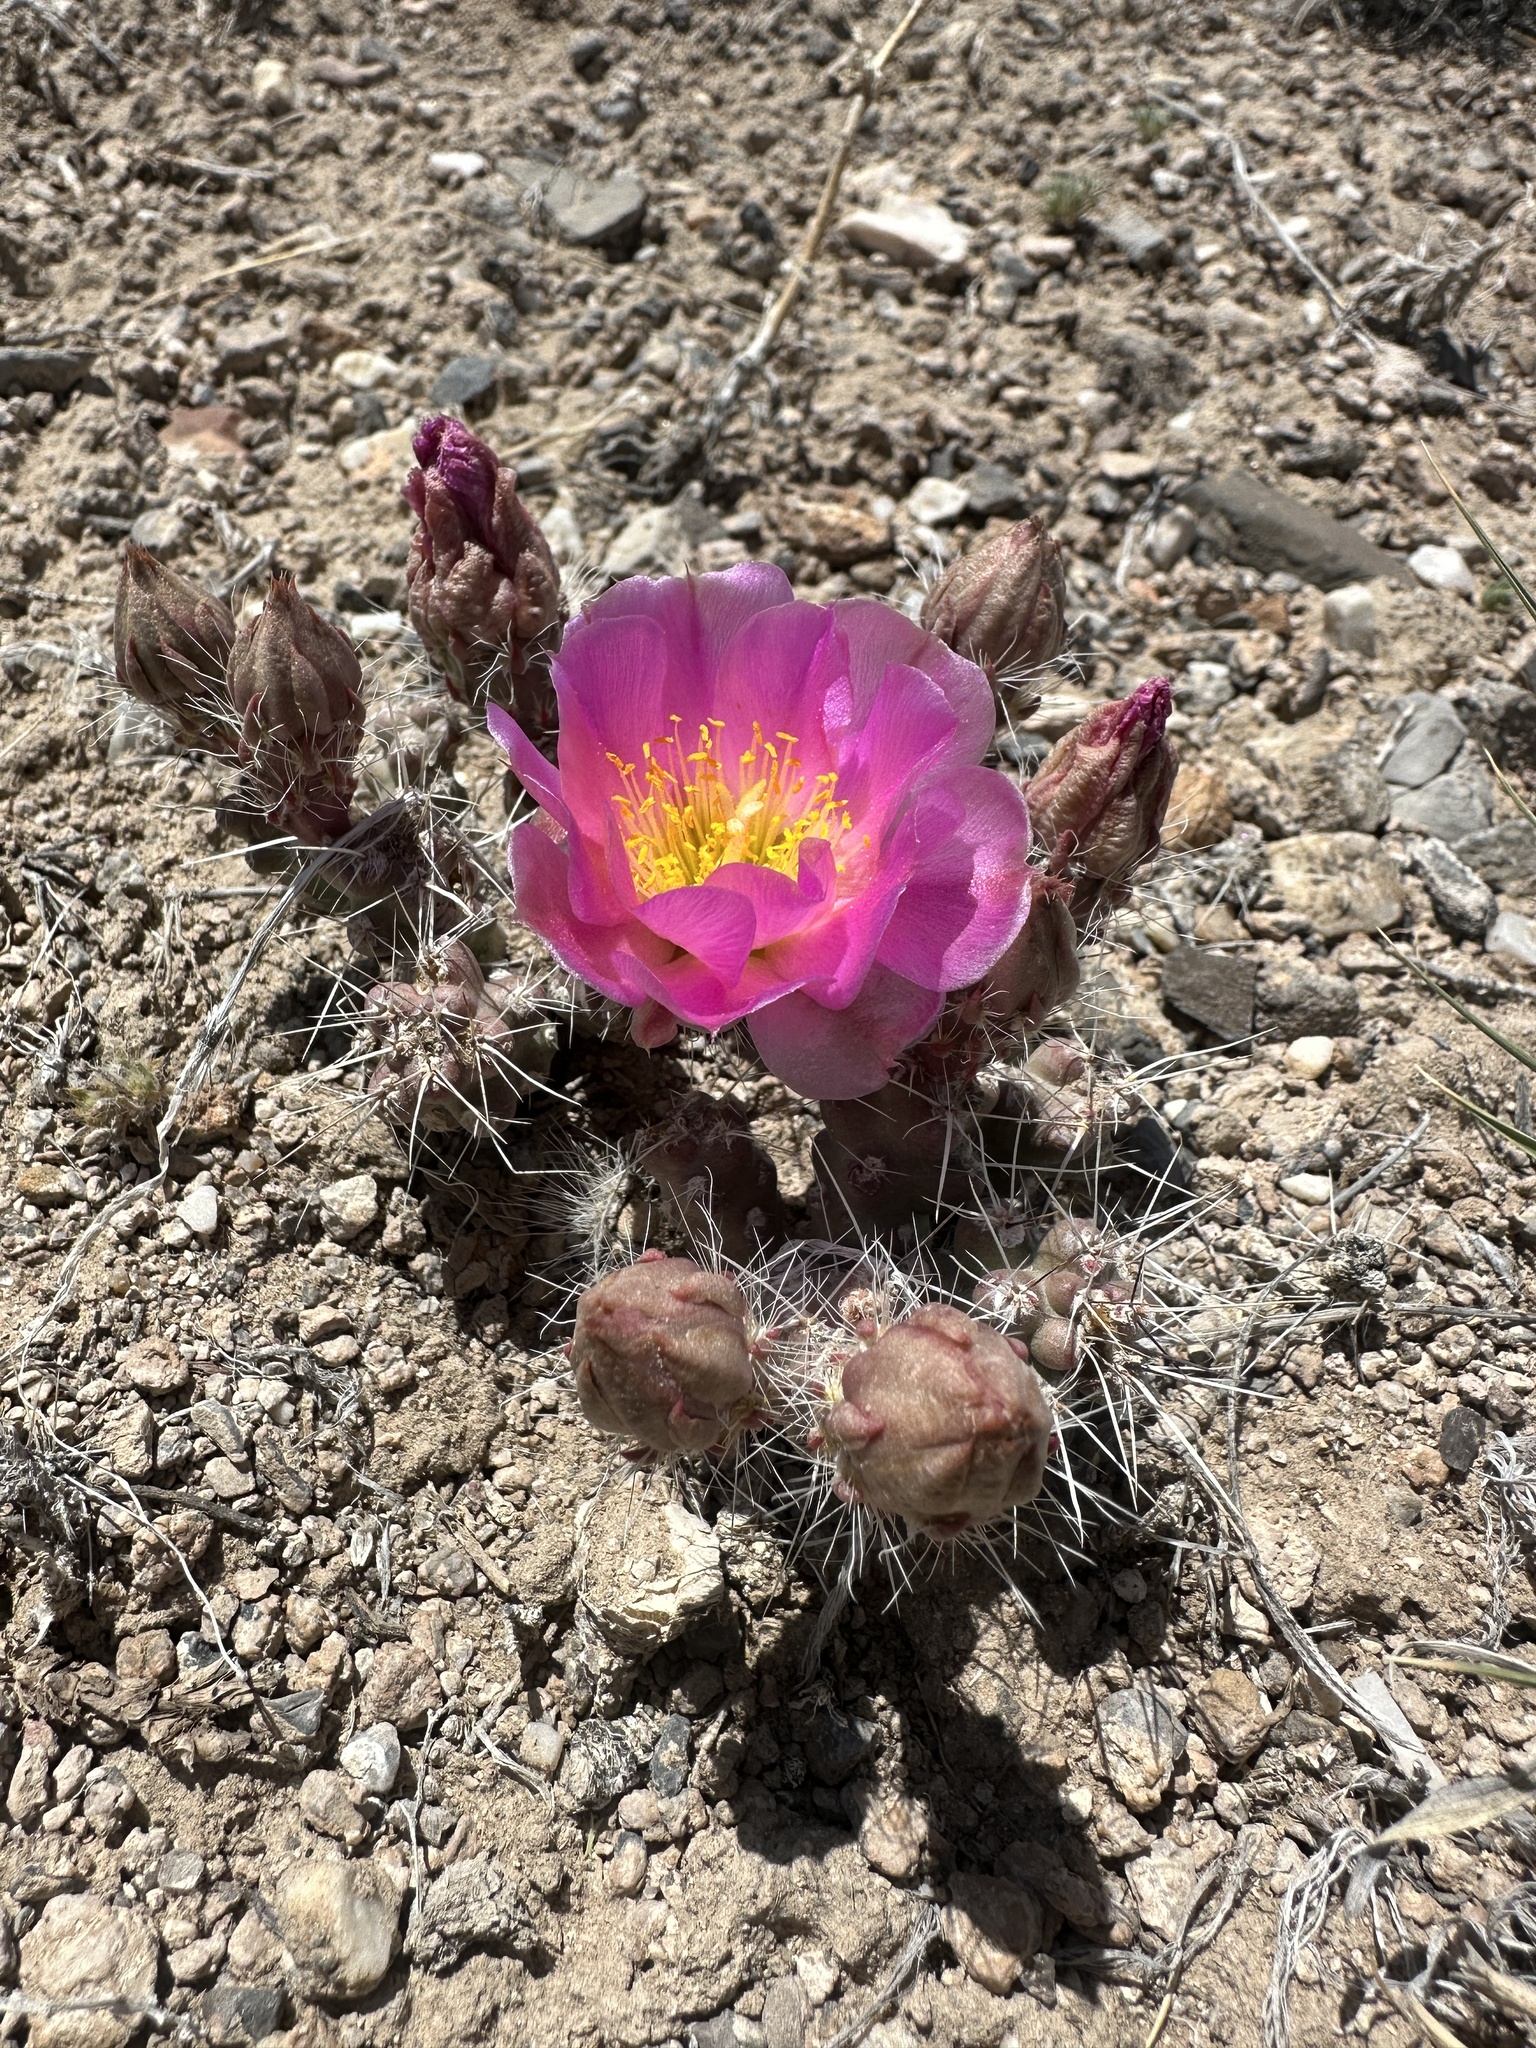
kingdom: Plantae
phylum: Tracheophyta
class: Magnoliopsida
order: Caryophyllales
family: Cactaceae
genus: Micropuntia
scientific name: Micropuntia pulchella
